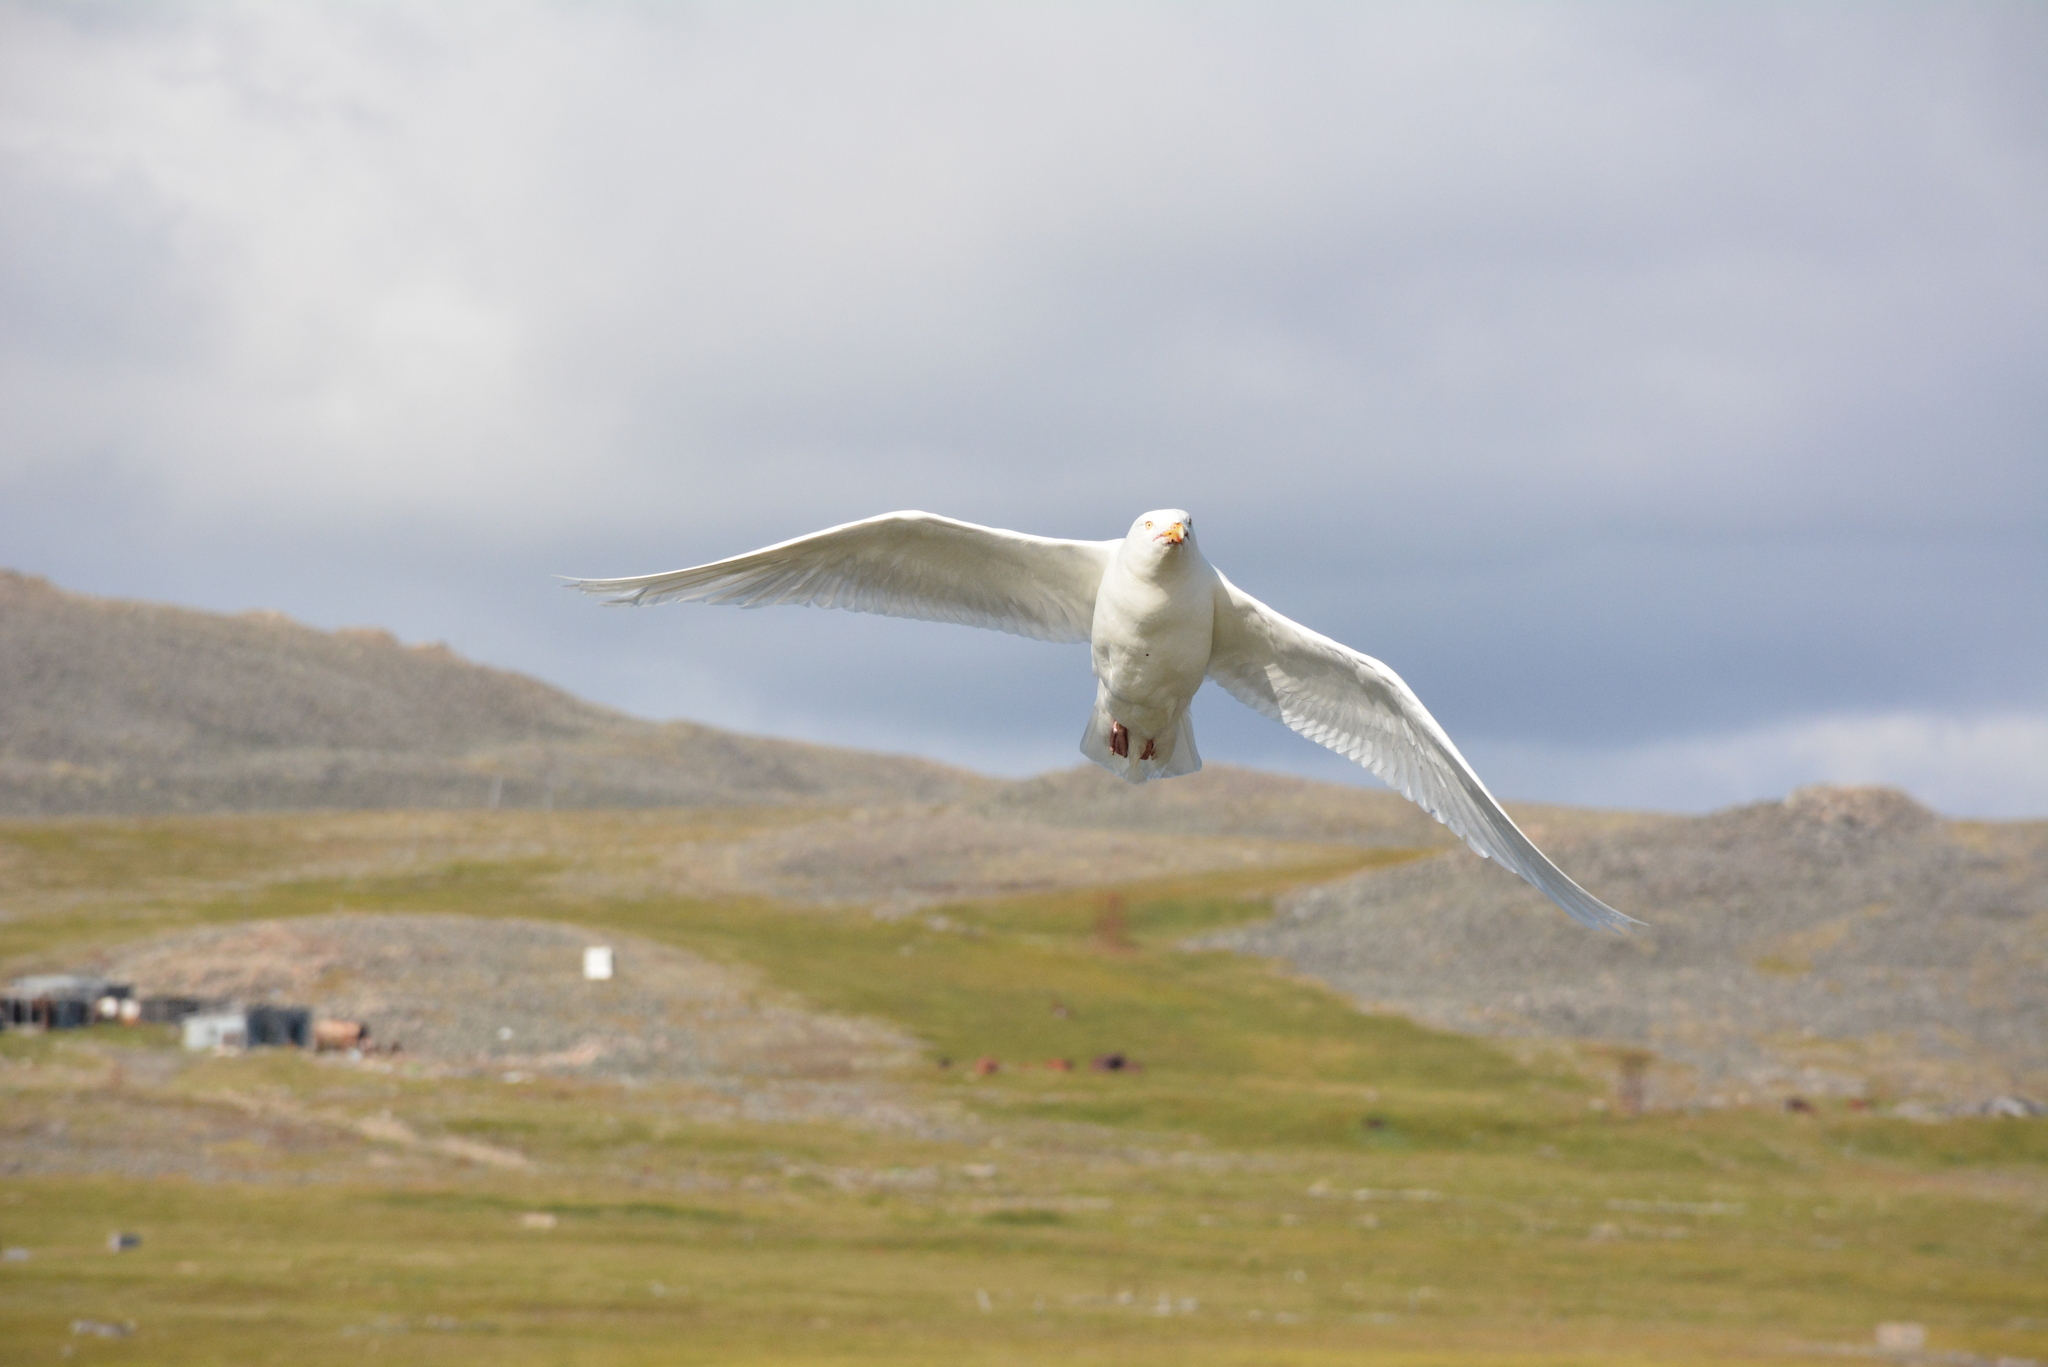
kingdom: Animalia
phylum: Chordata
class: Aves
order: Charadriiformes
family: Laridae
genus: Larus
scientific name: Larus hyperboreus
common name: Glaucous gull
